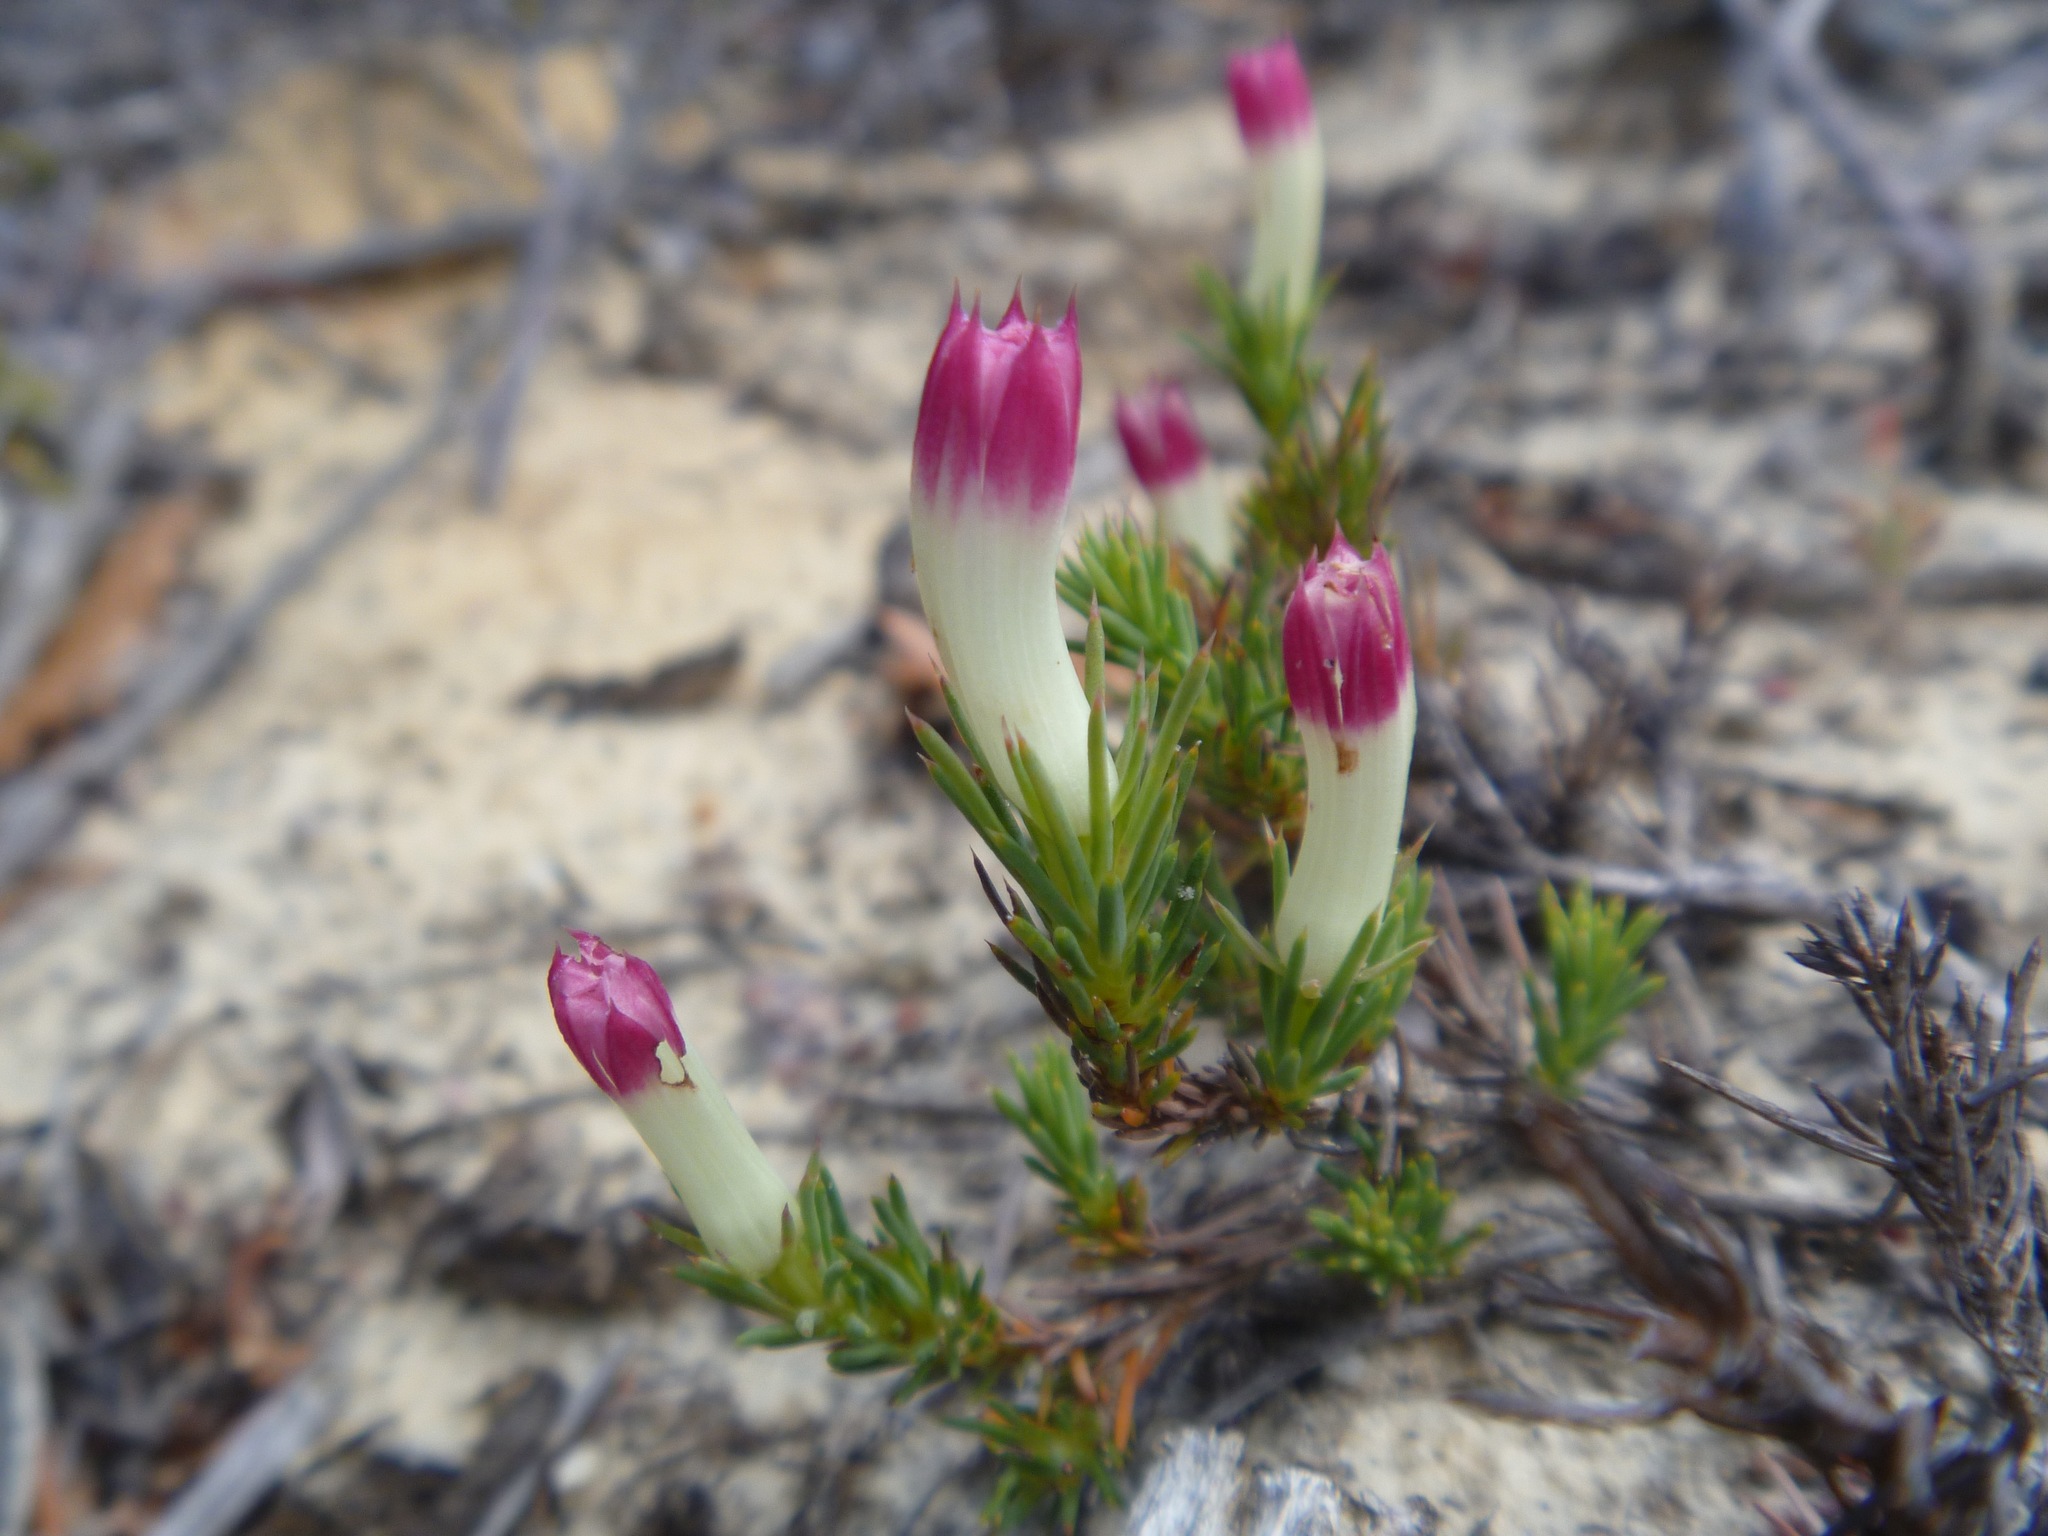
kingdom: Plantae
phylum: Tracheophyta
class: Magnoliopsida
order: Asterales
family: Goodeniaceae
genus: Lechenaultia
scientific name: Lechenaultia tubiflora
